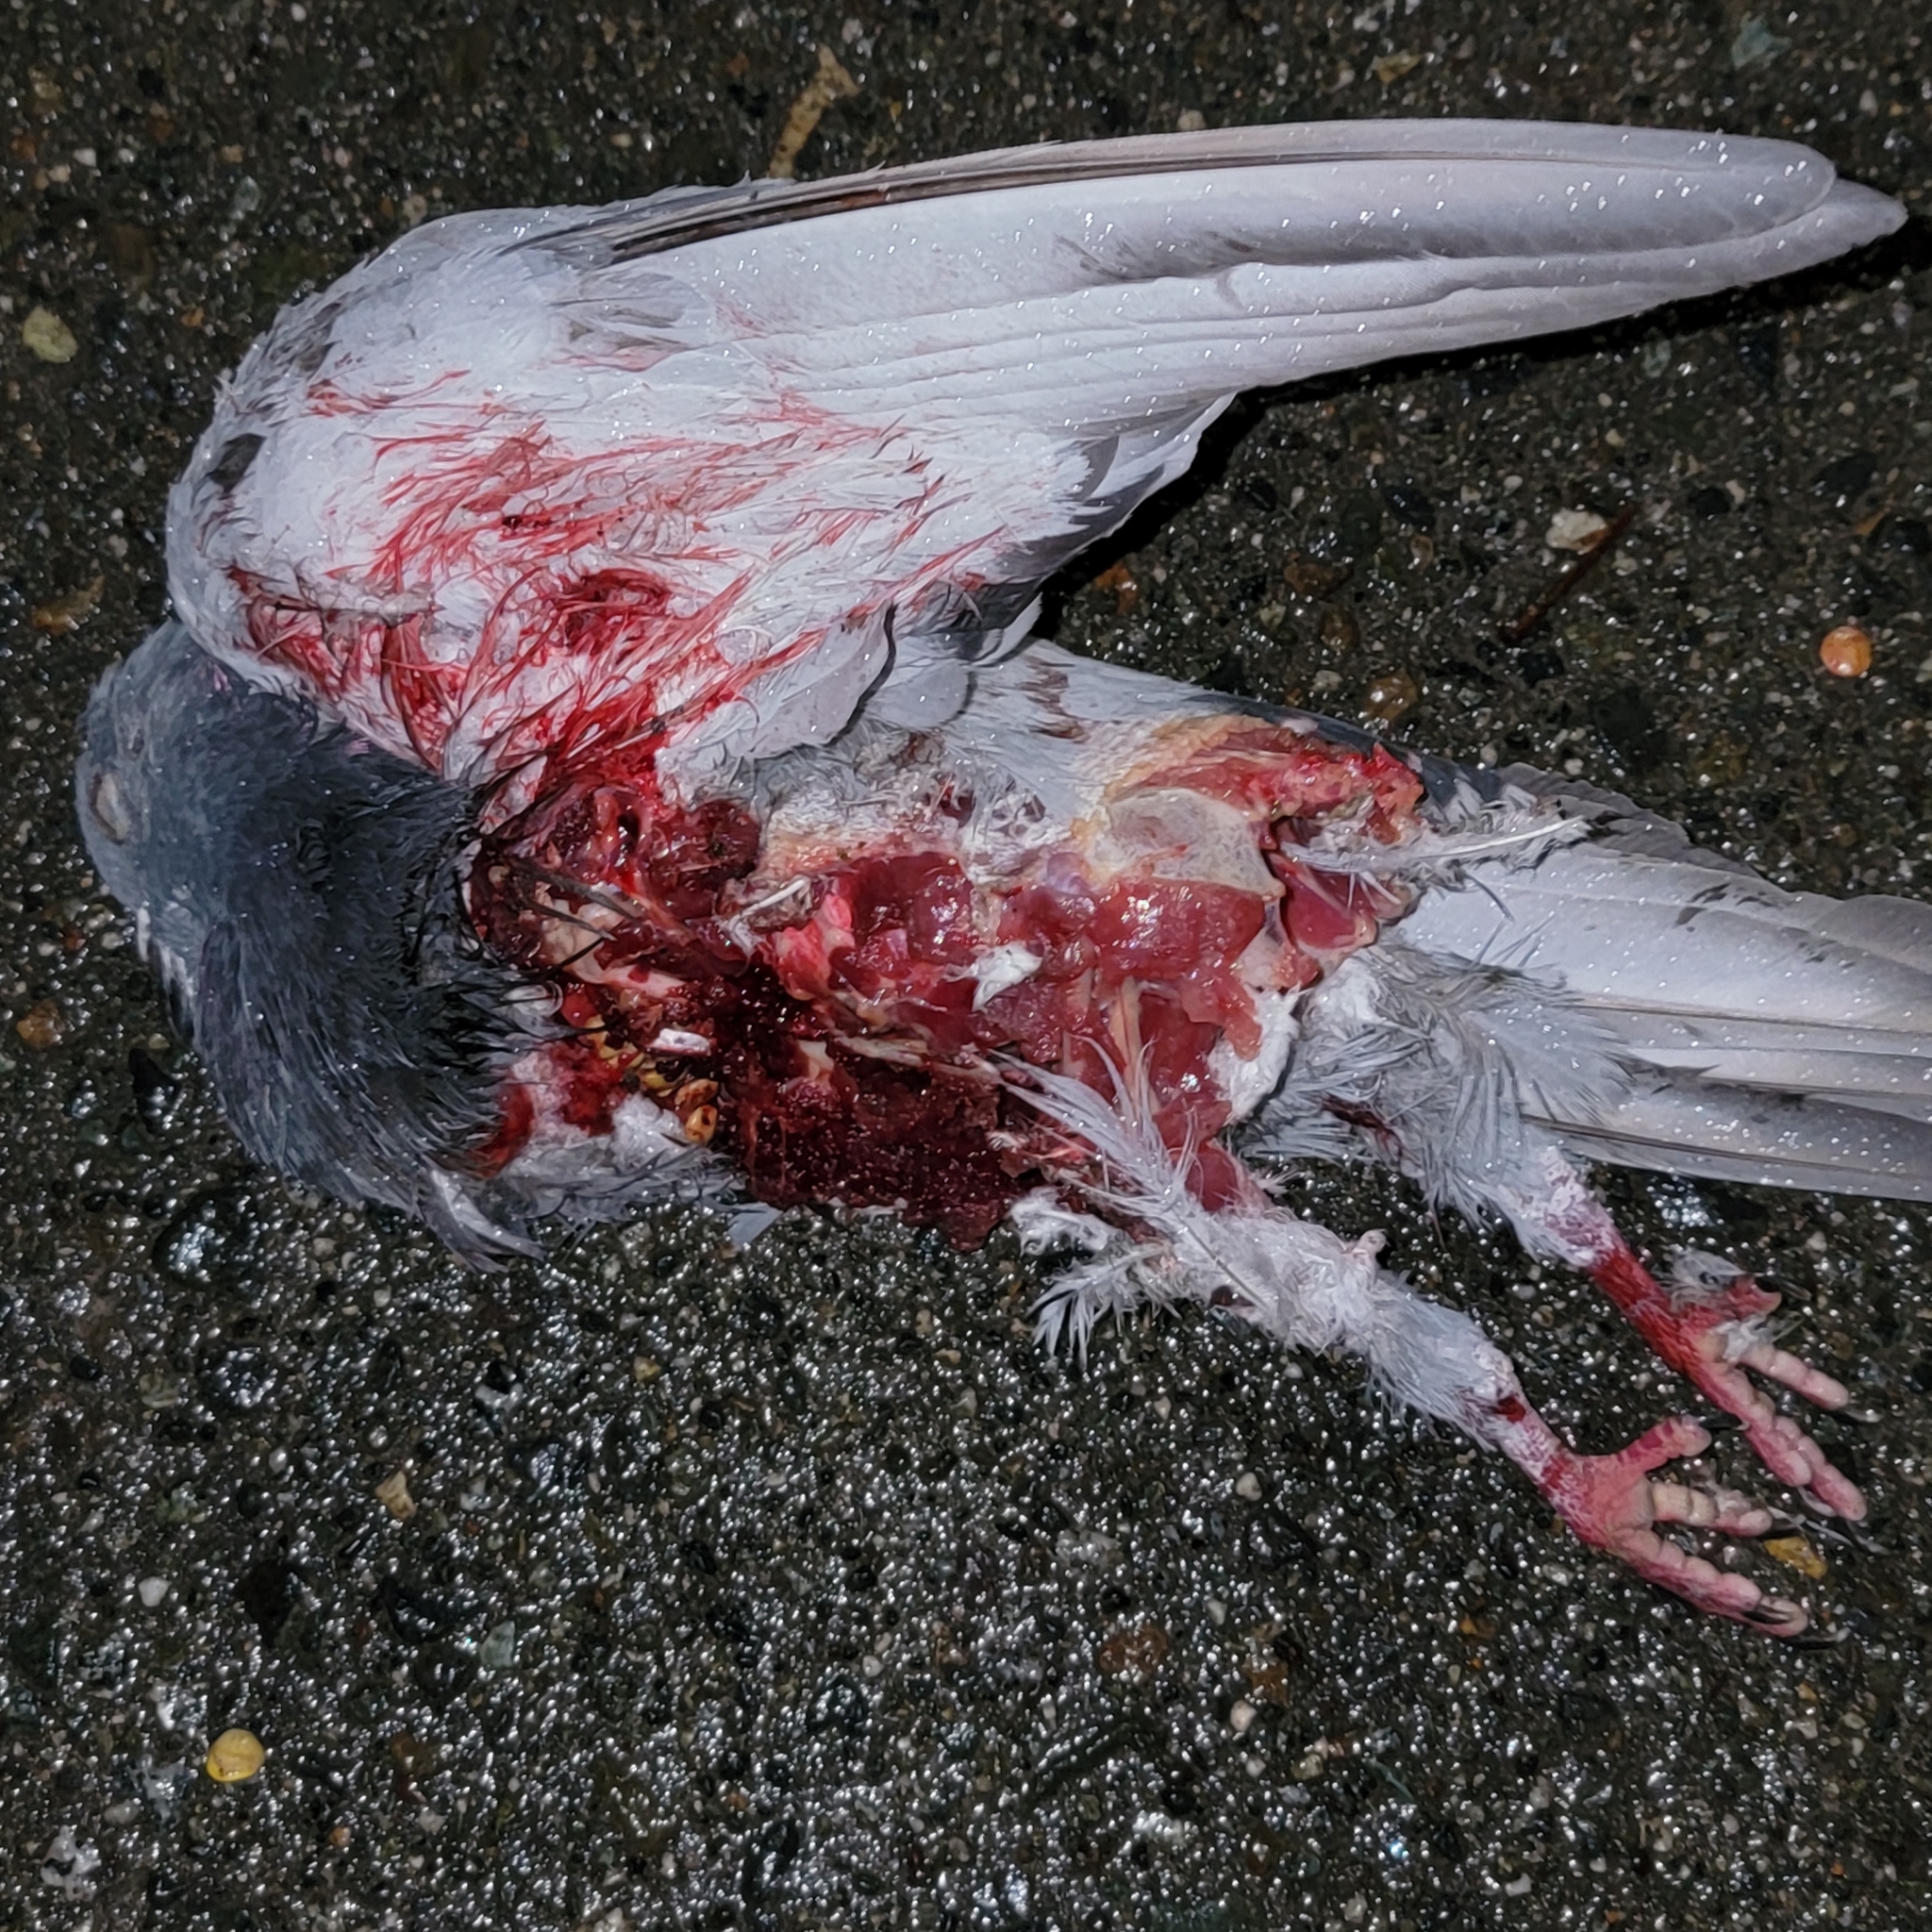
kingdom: Animalia
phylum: Chordata
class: Aves
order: Columbiformes
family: Columbidae
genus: Columba
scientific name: Columba livia
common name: Rock pigeon
